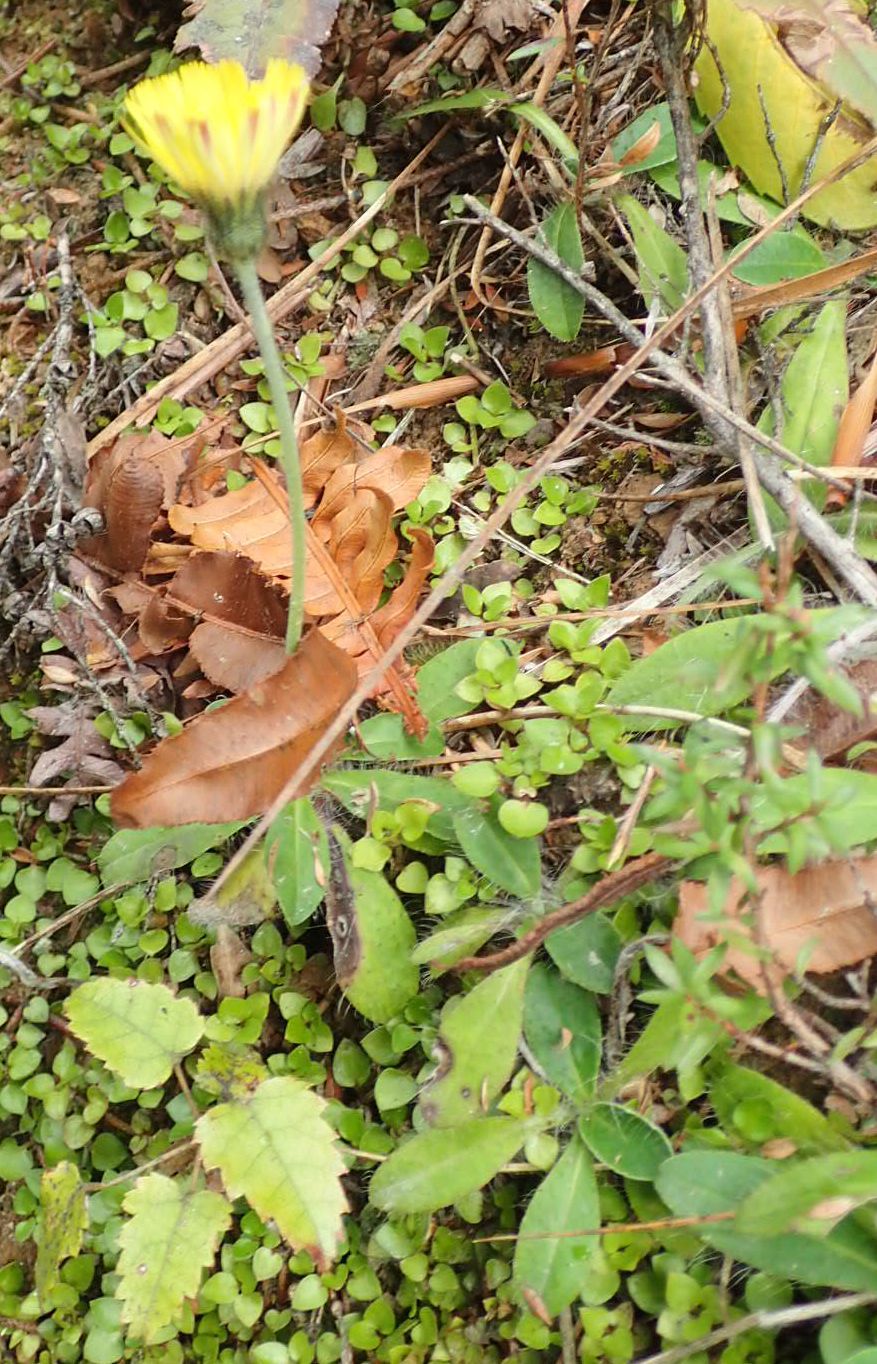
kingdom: Plantae
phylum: Tracheophyta
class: Magnoliopsida
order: Asterales
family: Asteraceae
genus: Pilosella
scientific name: Pilosella officinarum
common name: Mouse-ear hawkweed
